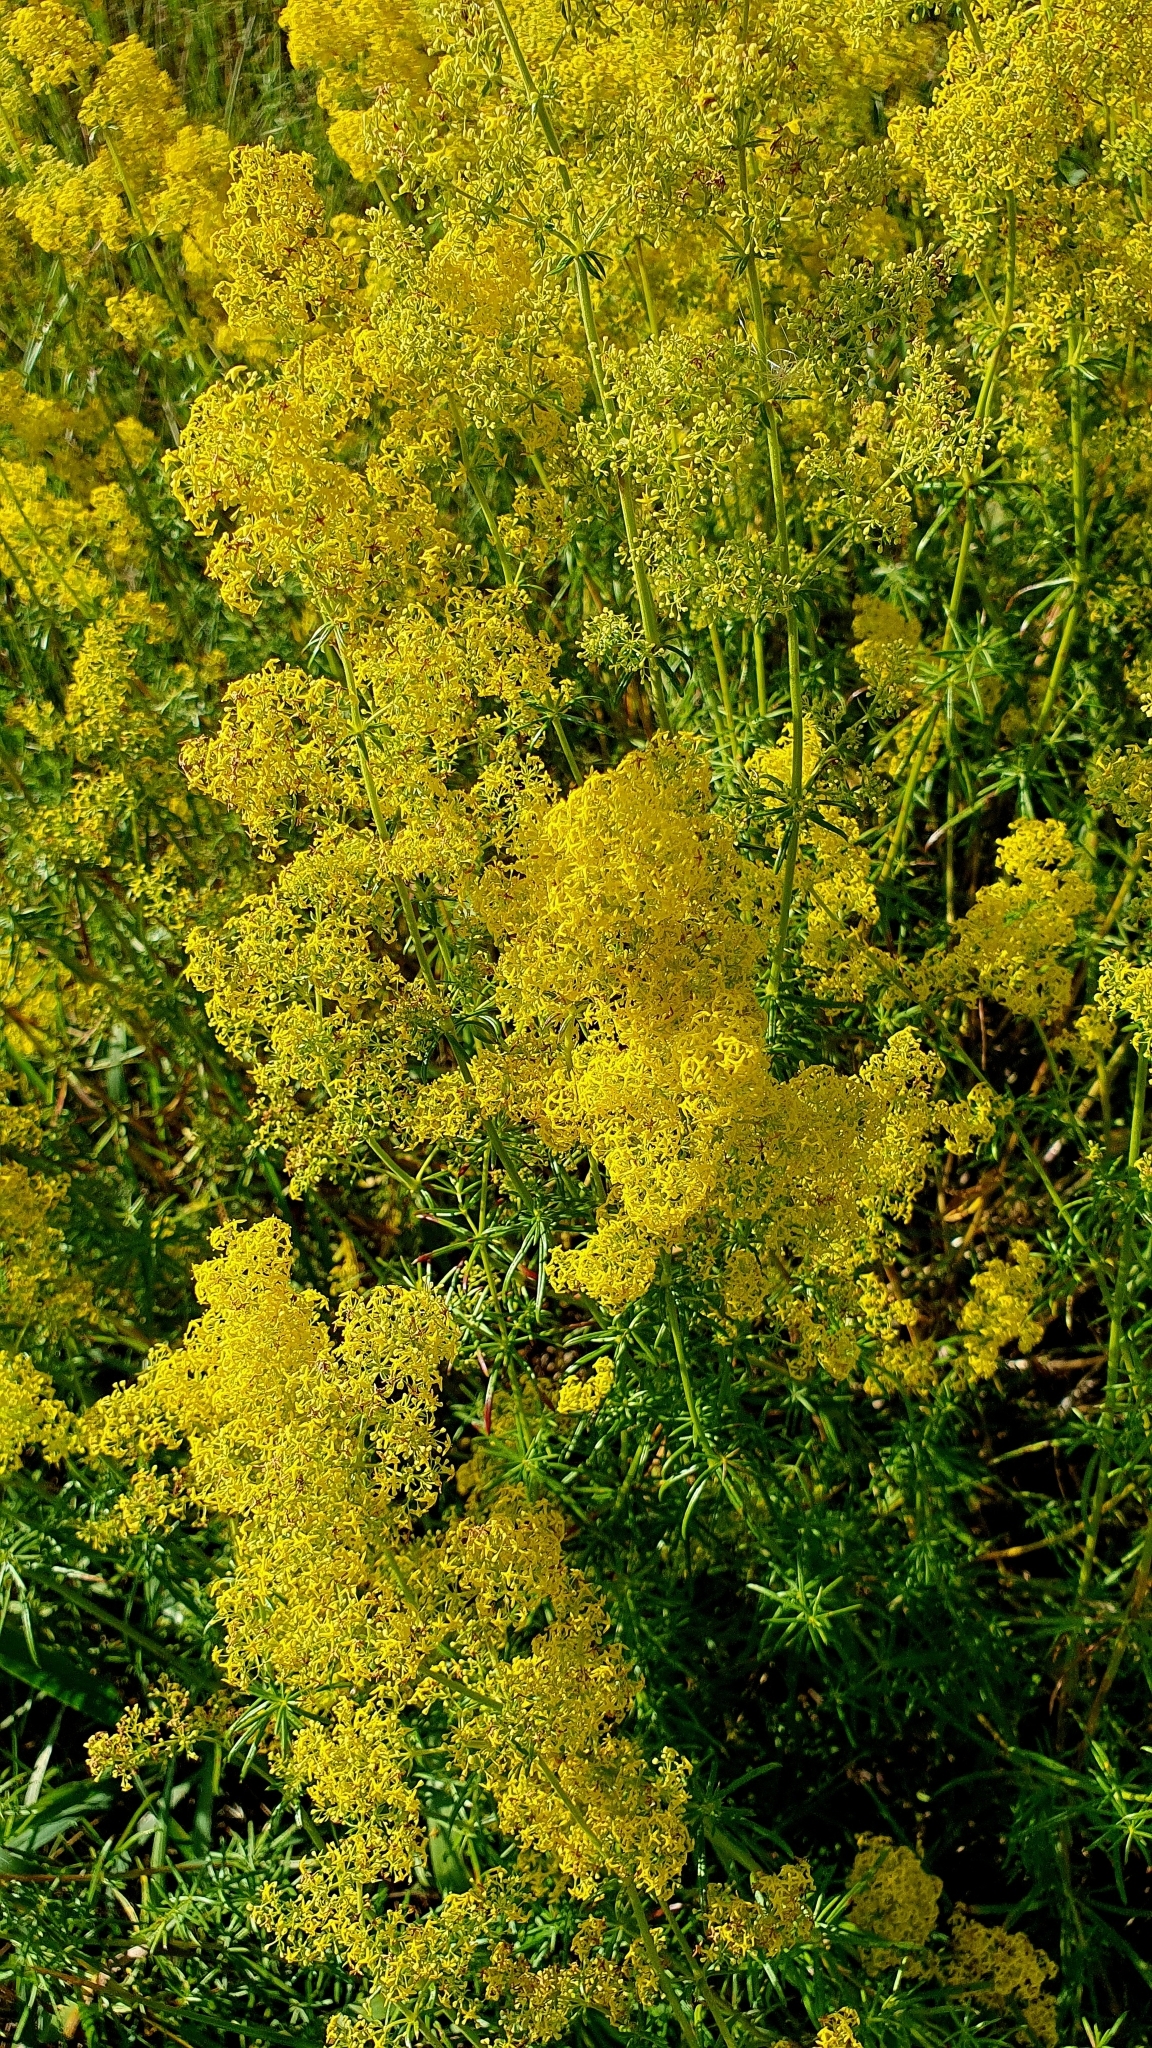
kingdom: Plantae
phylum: Tracheophyta
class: Magnoliopsida
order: Gentianales
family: Rubiaceae
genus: Galium
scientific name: Galium verum
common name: Lady's bedstraw
